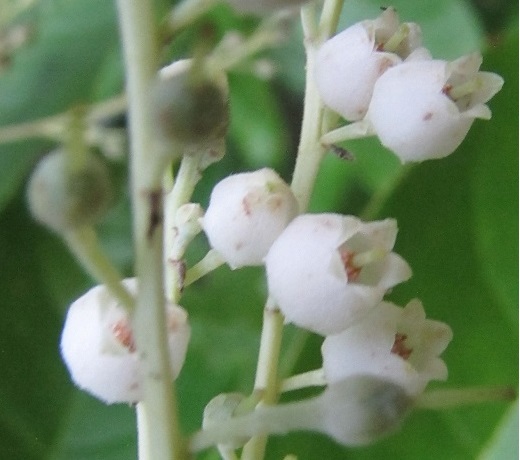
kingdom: Plantae
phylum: Tracheophyta
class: Magnoliopsida
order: Ericales
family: Ericaceae
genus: Oxydendrum
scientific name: Oxydendrum arboreum
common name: Sourwood
